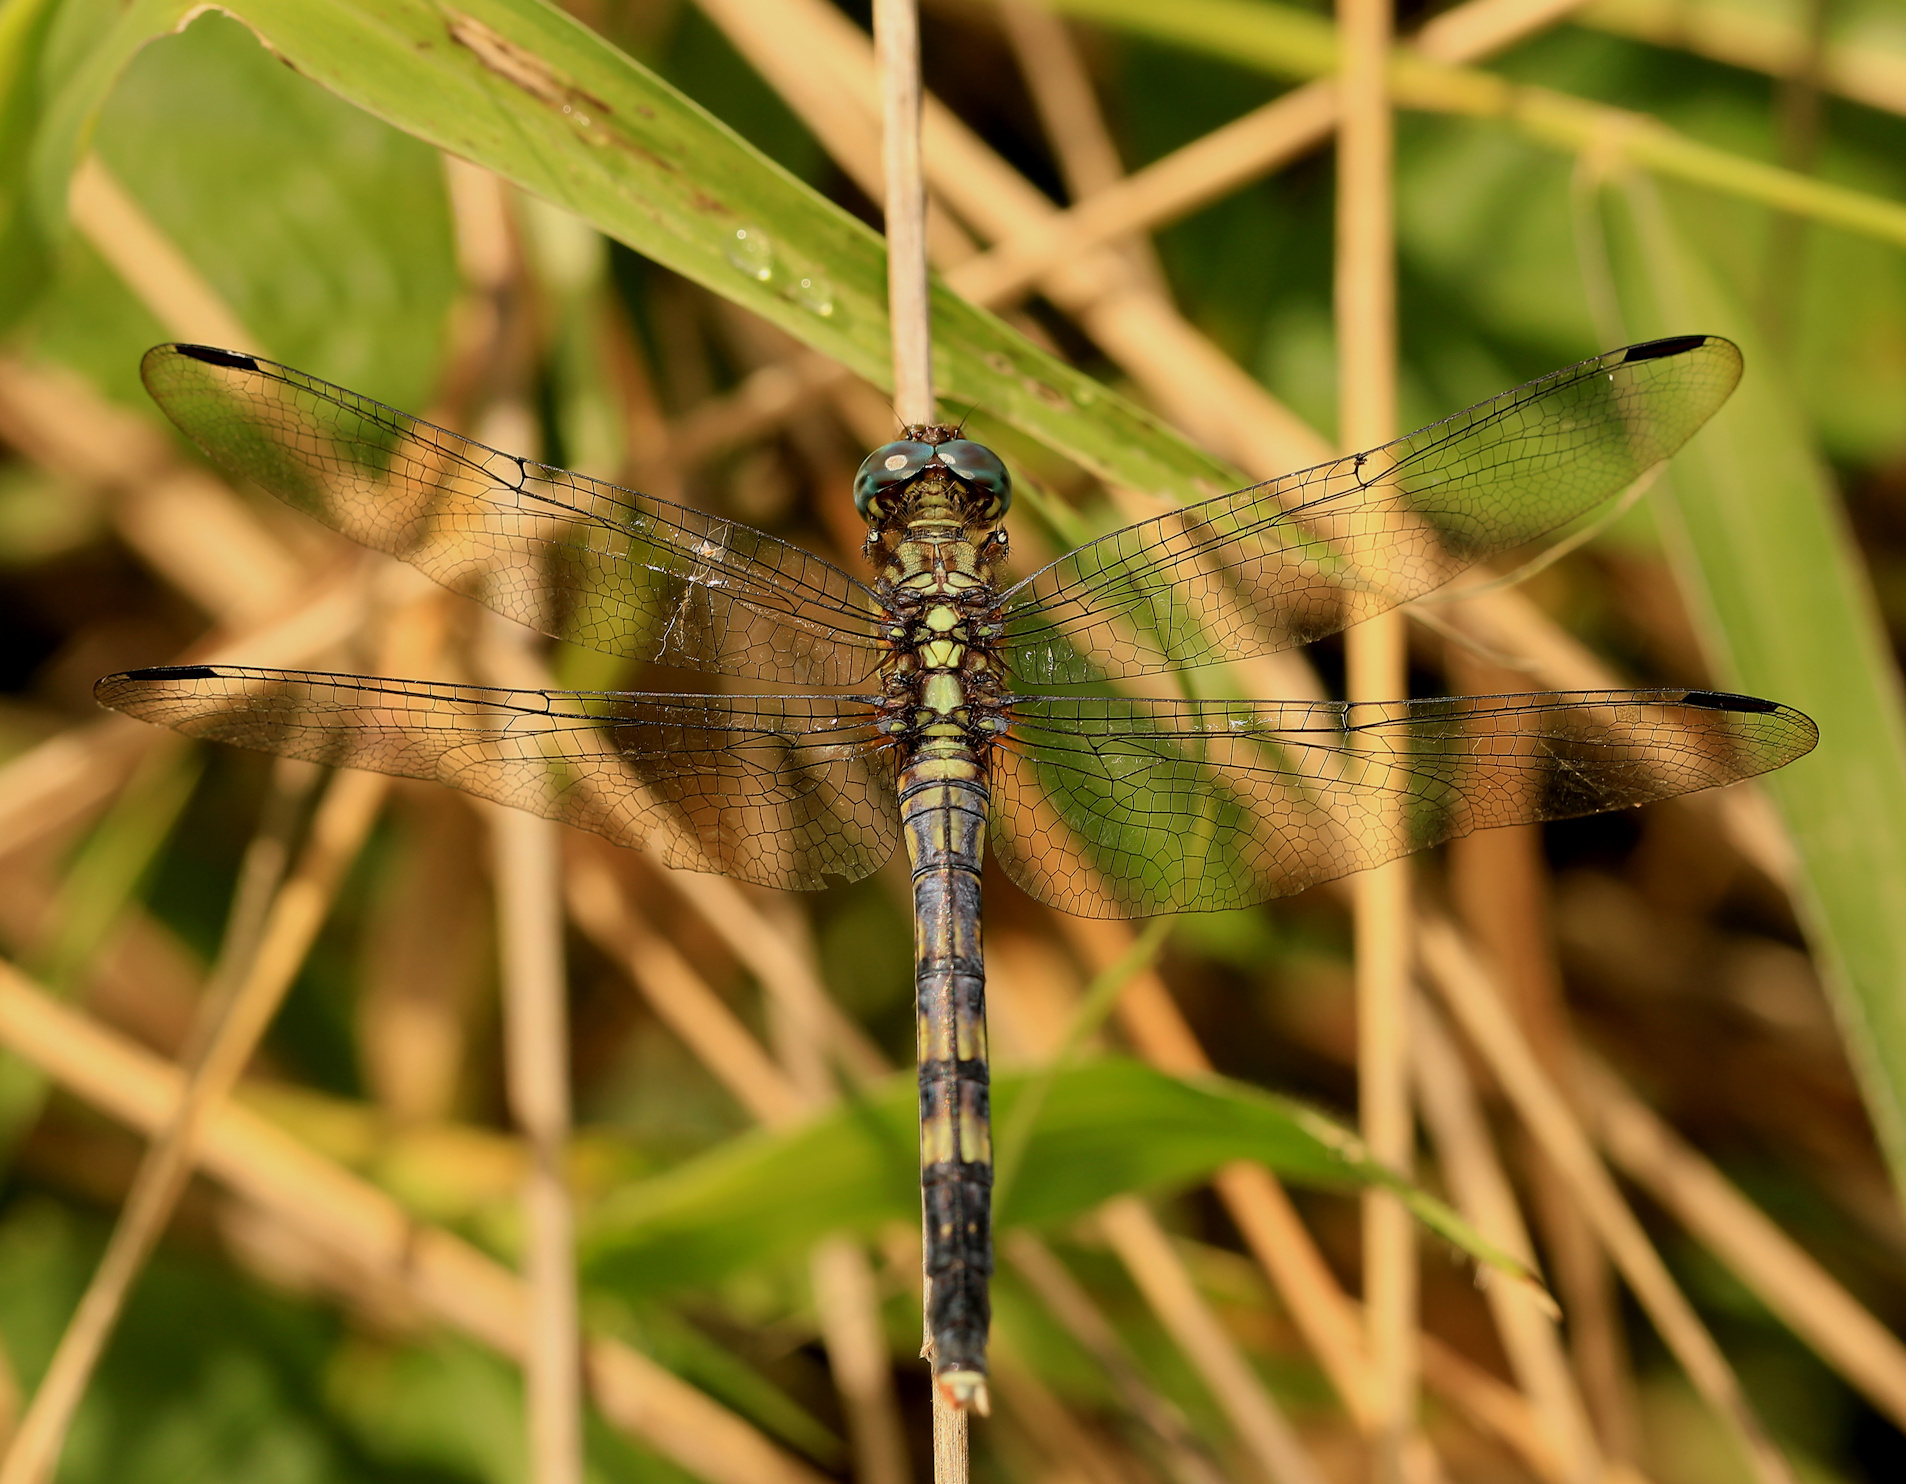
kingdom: Animalia
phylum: Arthropoda
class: Insecta
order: Odonata
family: Libellulidae
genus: Orthetrum
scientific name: Orthetrum julia
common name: Julia skimmer
